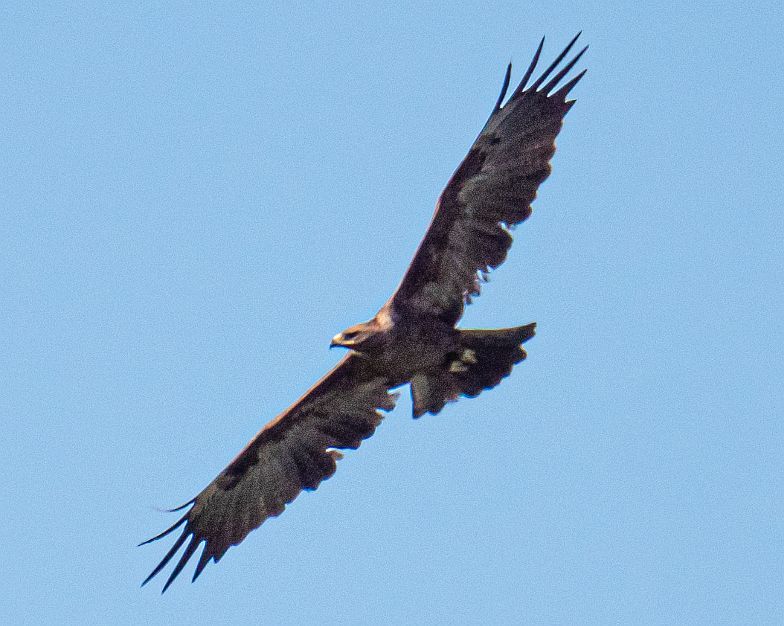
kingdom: Animalia
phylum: Chordata
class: Aves
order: Accipitriformes
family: Accipitridae
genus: Aquila
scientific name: Aquila rapax
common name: Tawny eagle
